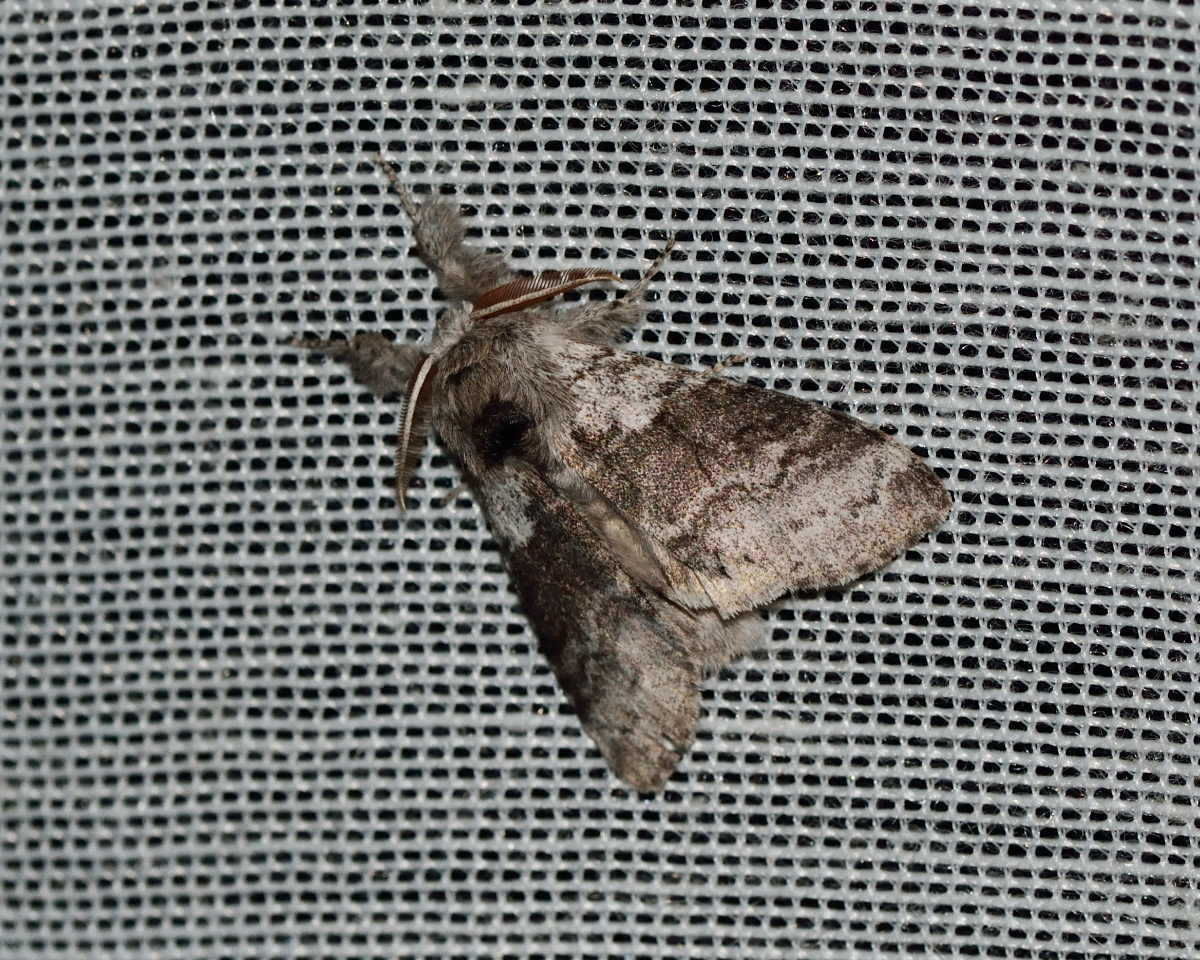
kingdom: Animalia
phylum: Arthropoda
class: Insecta
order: Lepidoptera
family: Erebidae
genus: Calliteara
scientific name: Calliteara pudibunda
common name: Pale tussock
